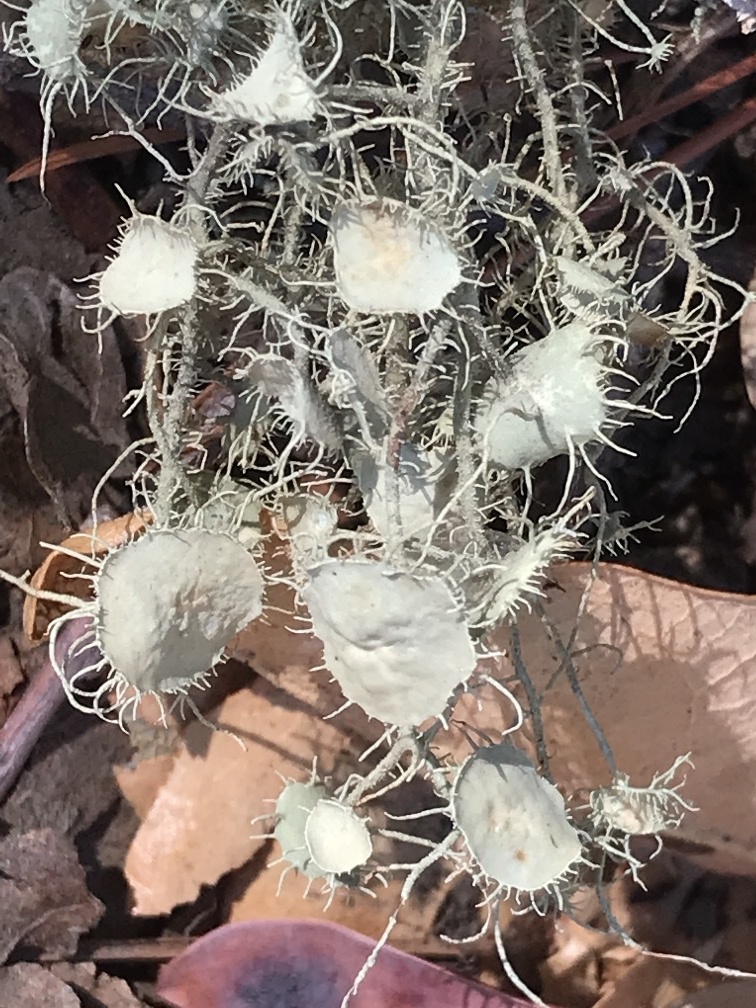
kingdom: Fungi
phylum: Ascomycota
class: Lecanoromycetes
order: Lecanorales
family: Parmeliaceae
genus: Usnea
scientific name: Usnea intermedia
